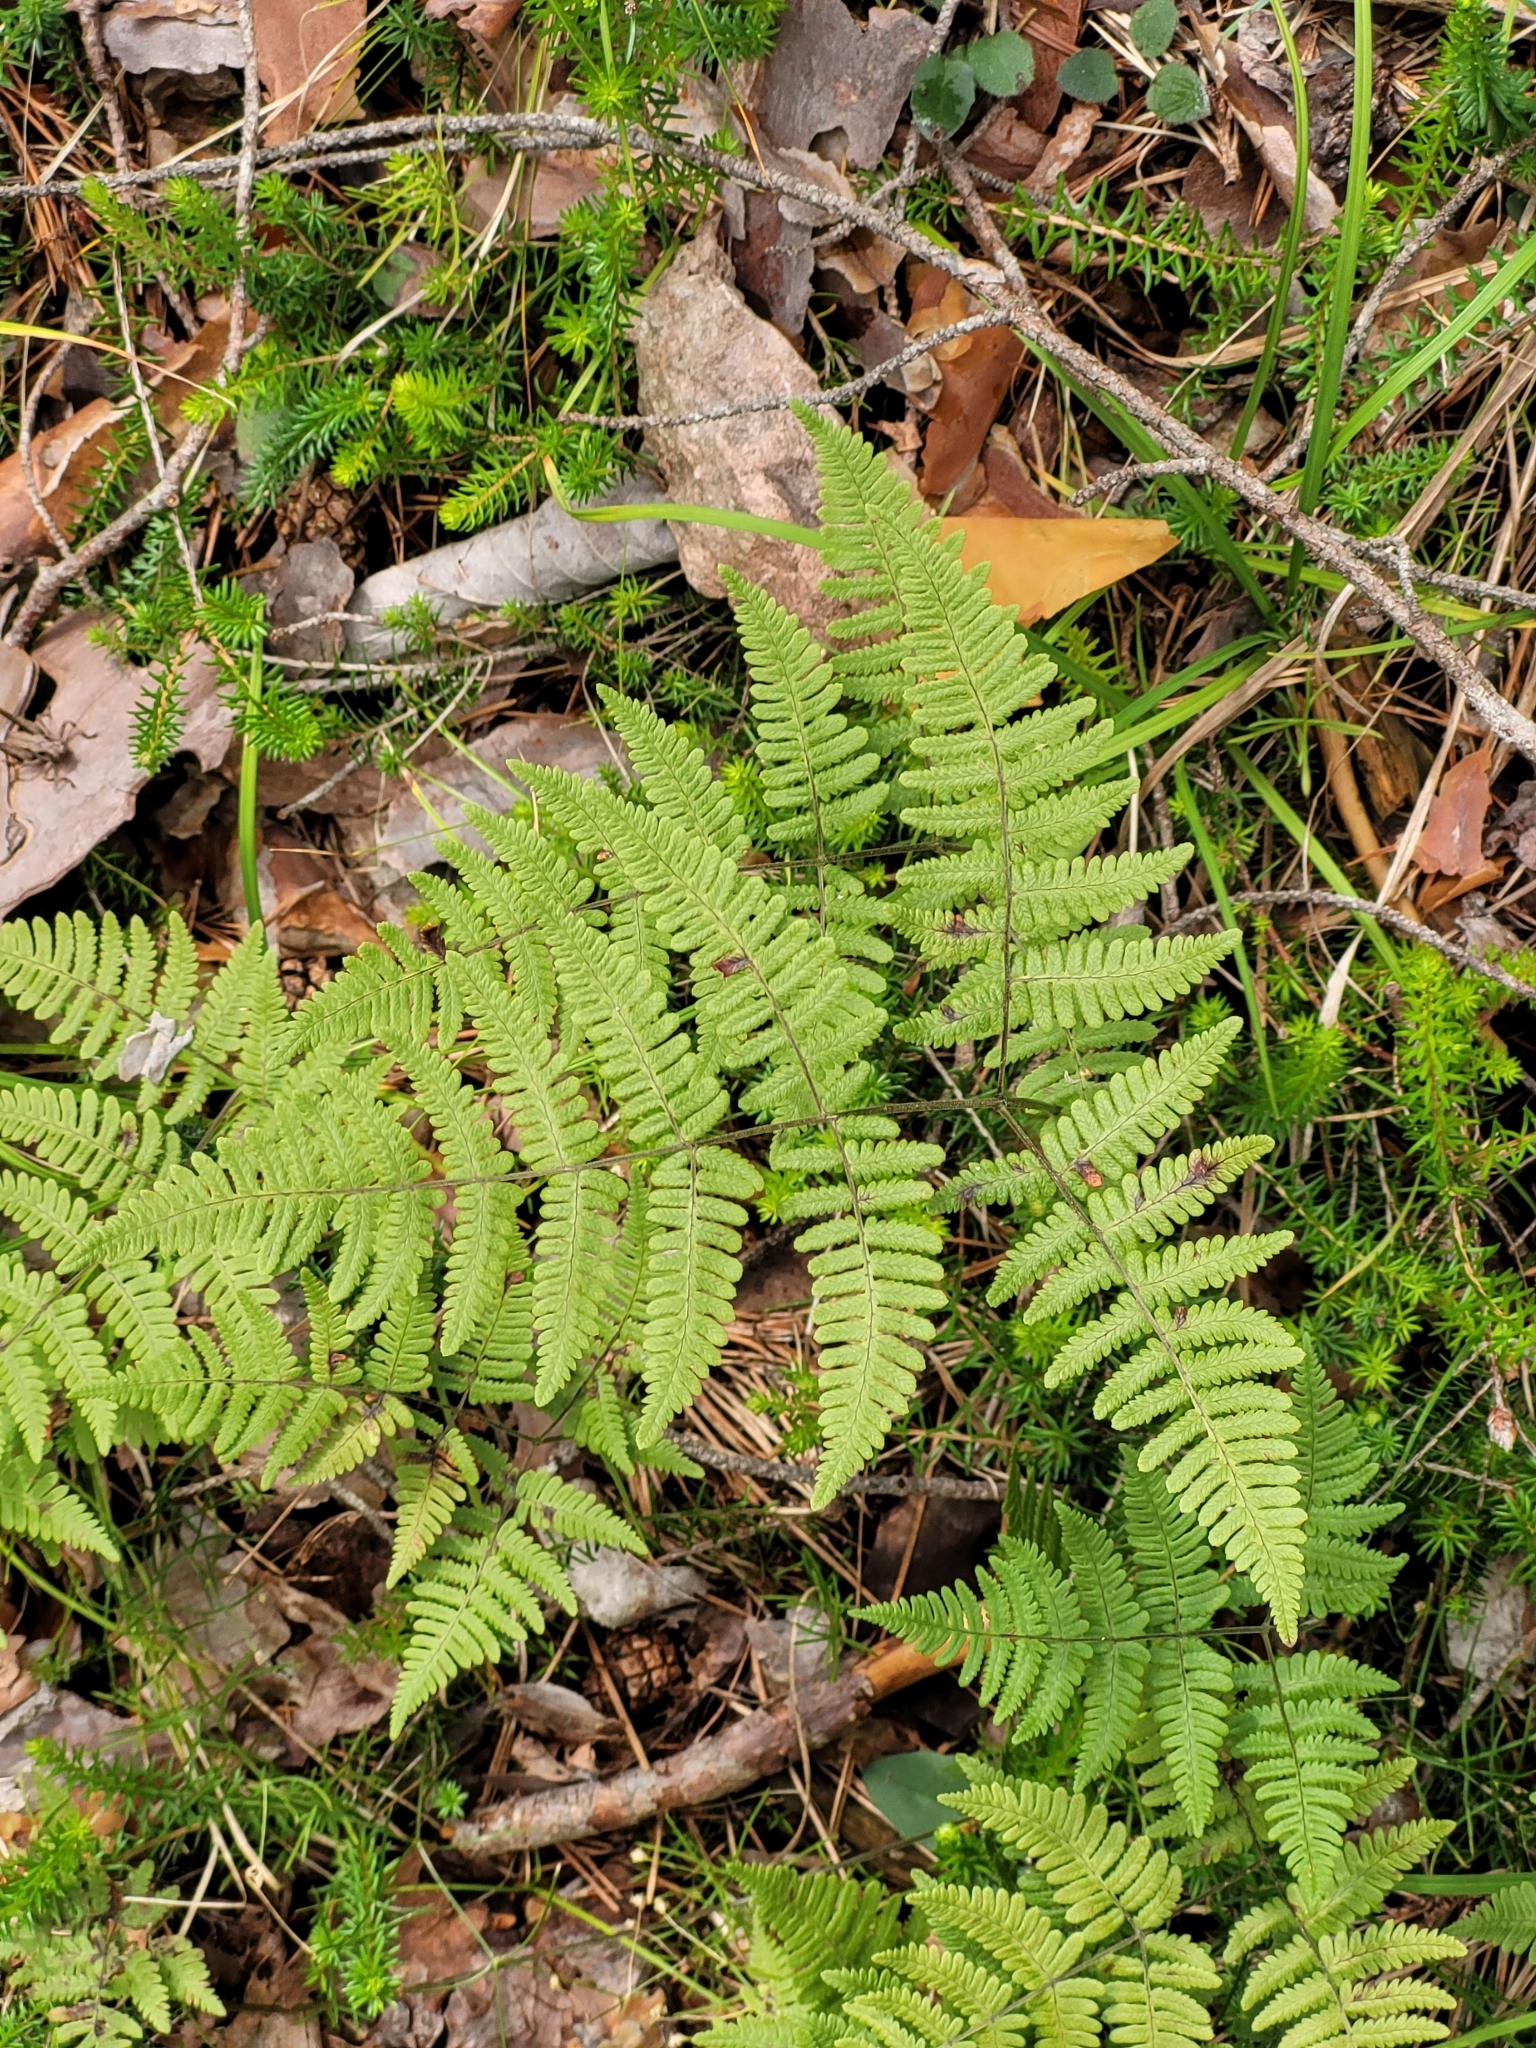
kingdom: Plantae
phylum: Tracheophyta
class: Polypodiopsida
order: Polypodiales
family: Cystopteridaceae
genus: Gymnocarpium
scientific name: Gymnocarpium robertianum
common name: Limestone fern
